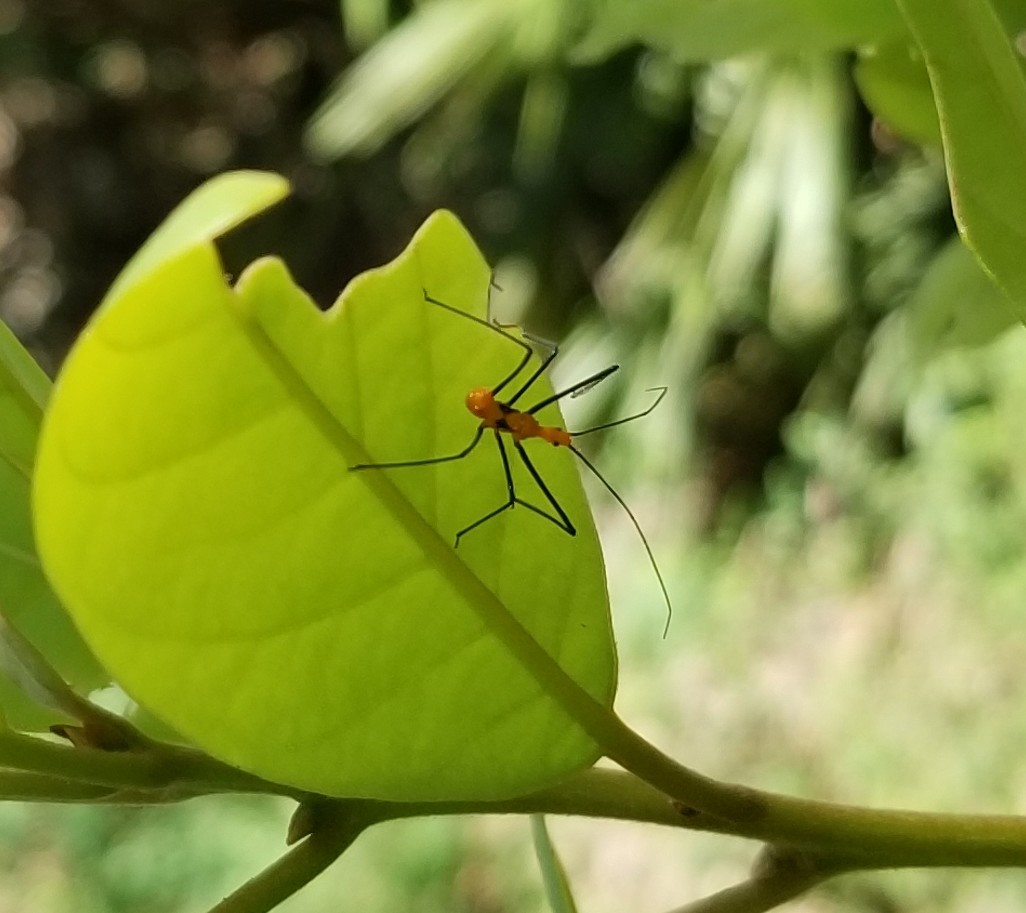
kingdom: Animalia
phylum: Arthropoda
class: Insecta
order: Hemiptera
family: Reduviidae
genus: Zelus
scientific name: Zelus longipes
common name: Milkweed assassin bug
